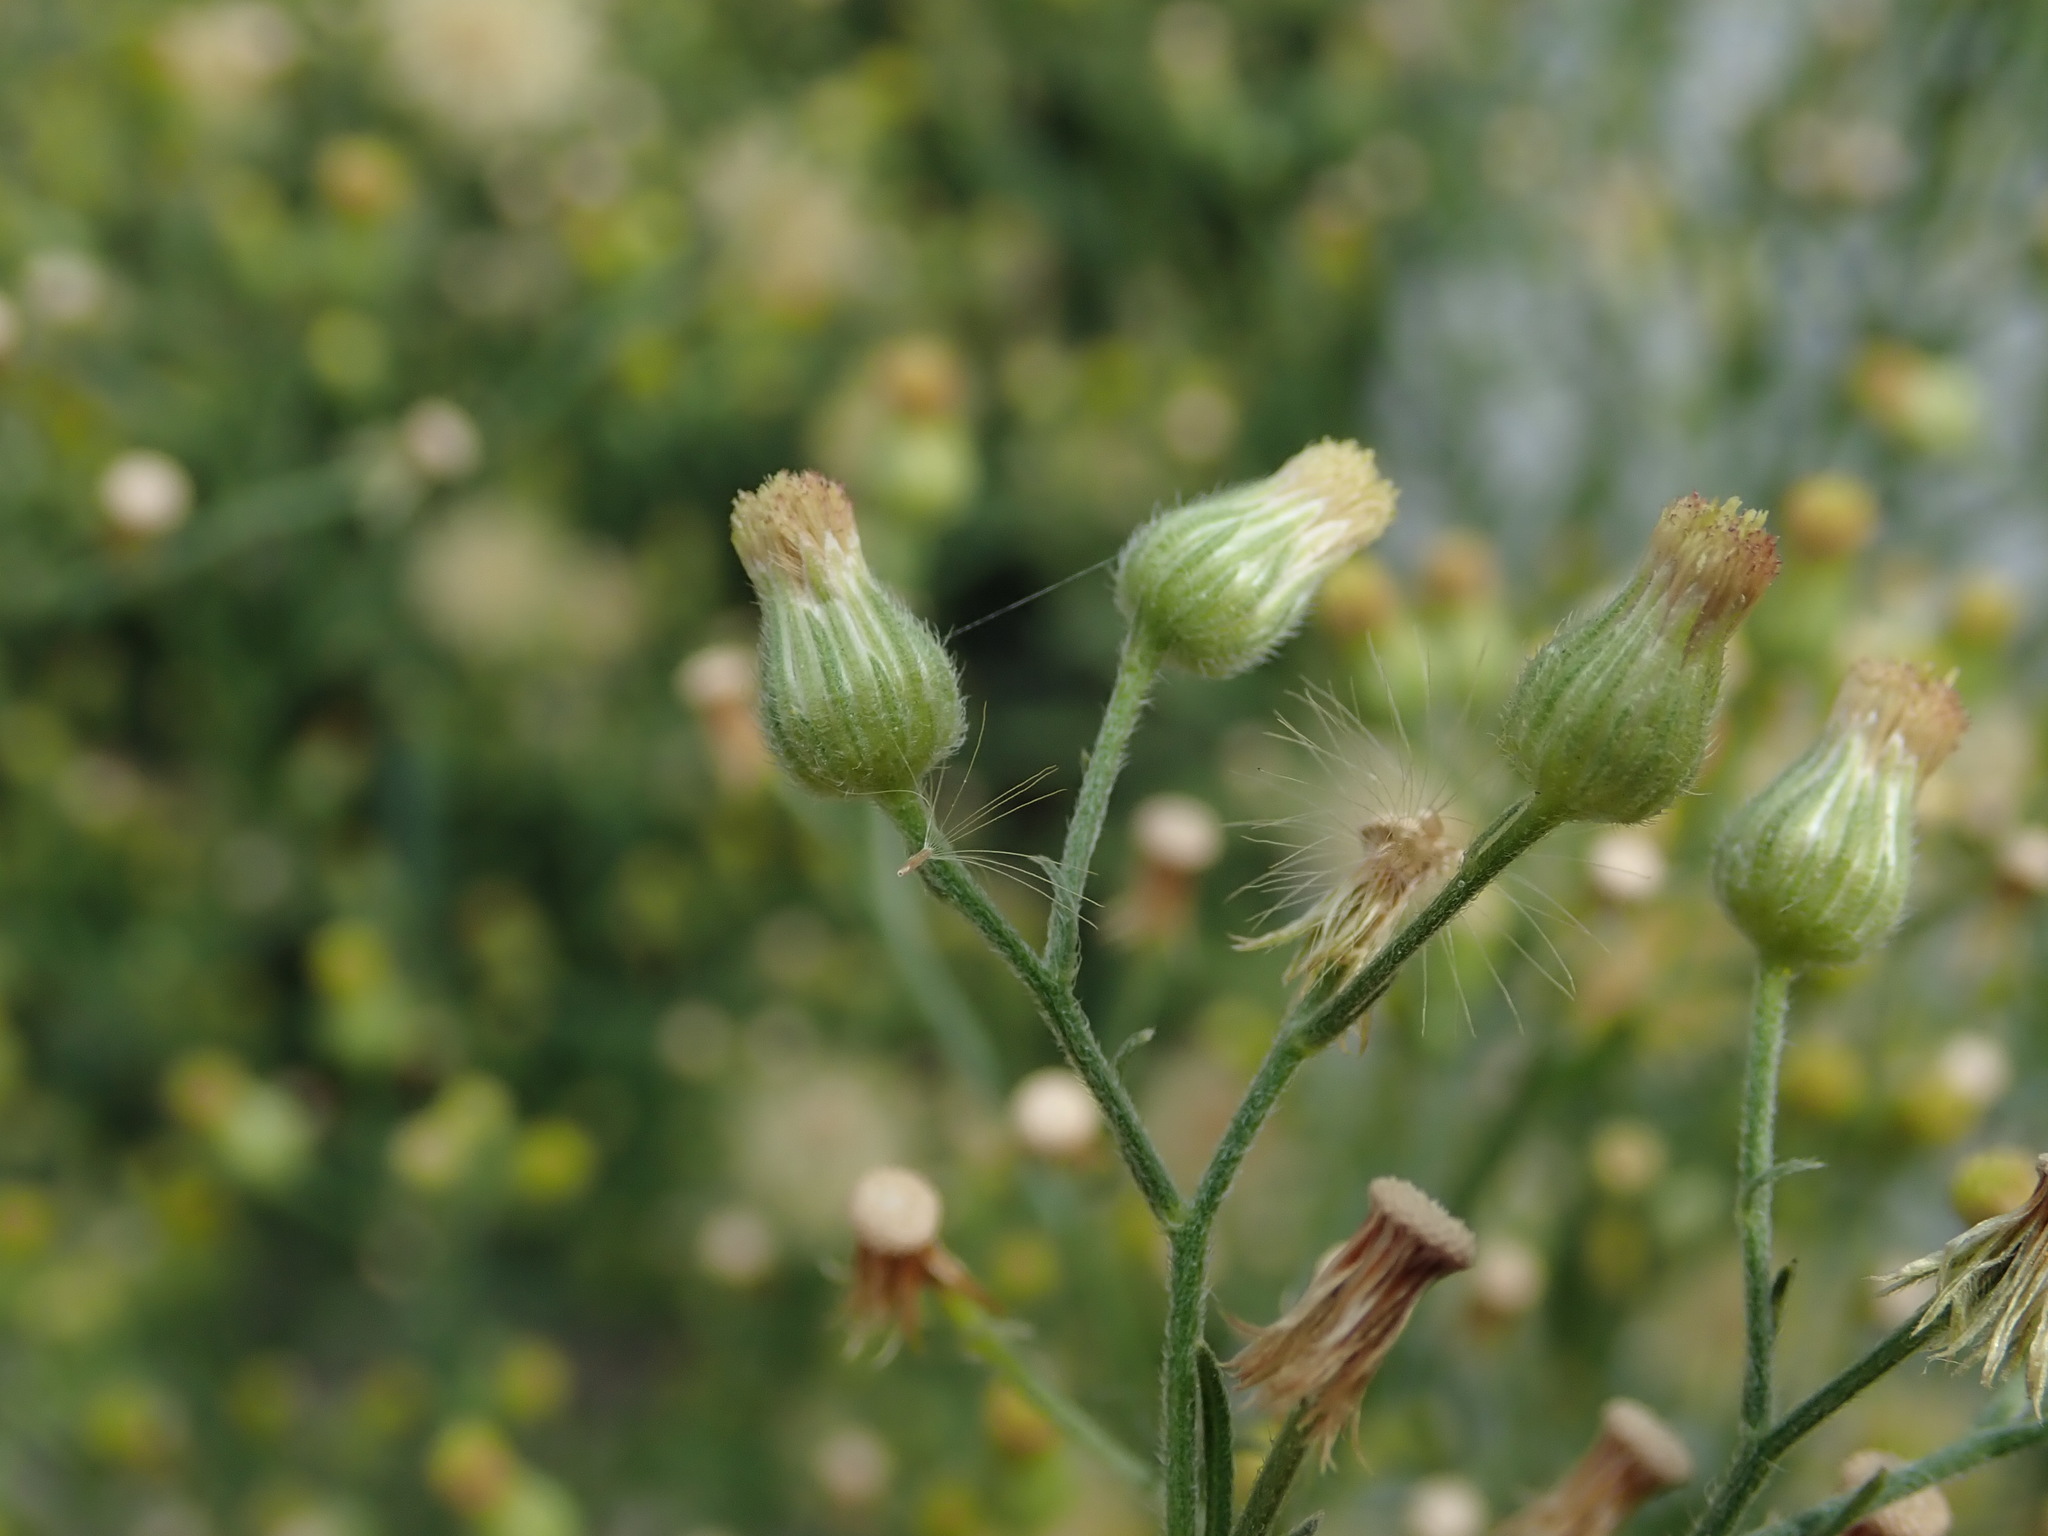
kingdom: Plantae
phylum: Tracheophyta
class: Magnoliopsida
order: Asterales
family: Asteraceae
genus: Erigeron
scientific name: Erigeron sumatrensis
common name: Daisy
